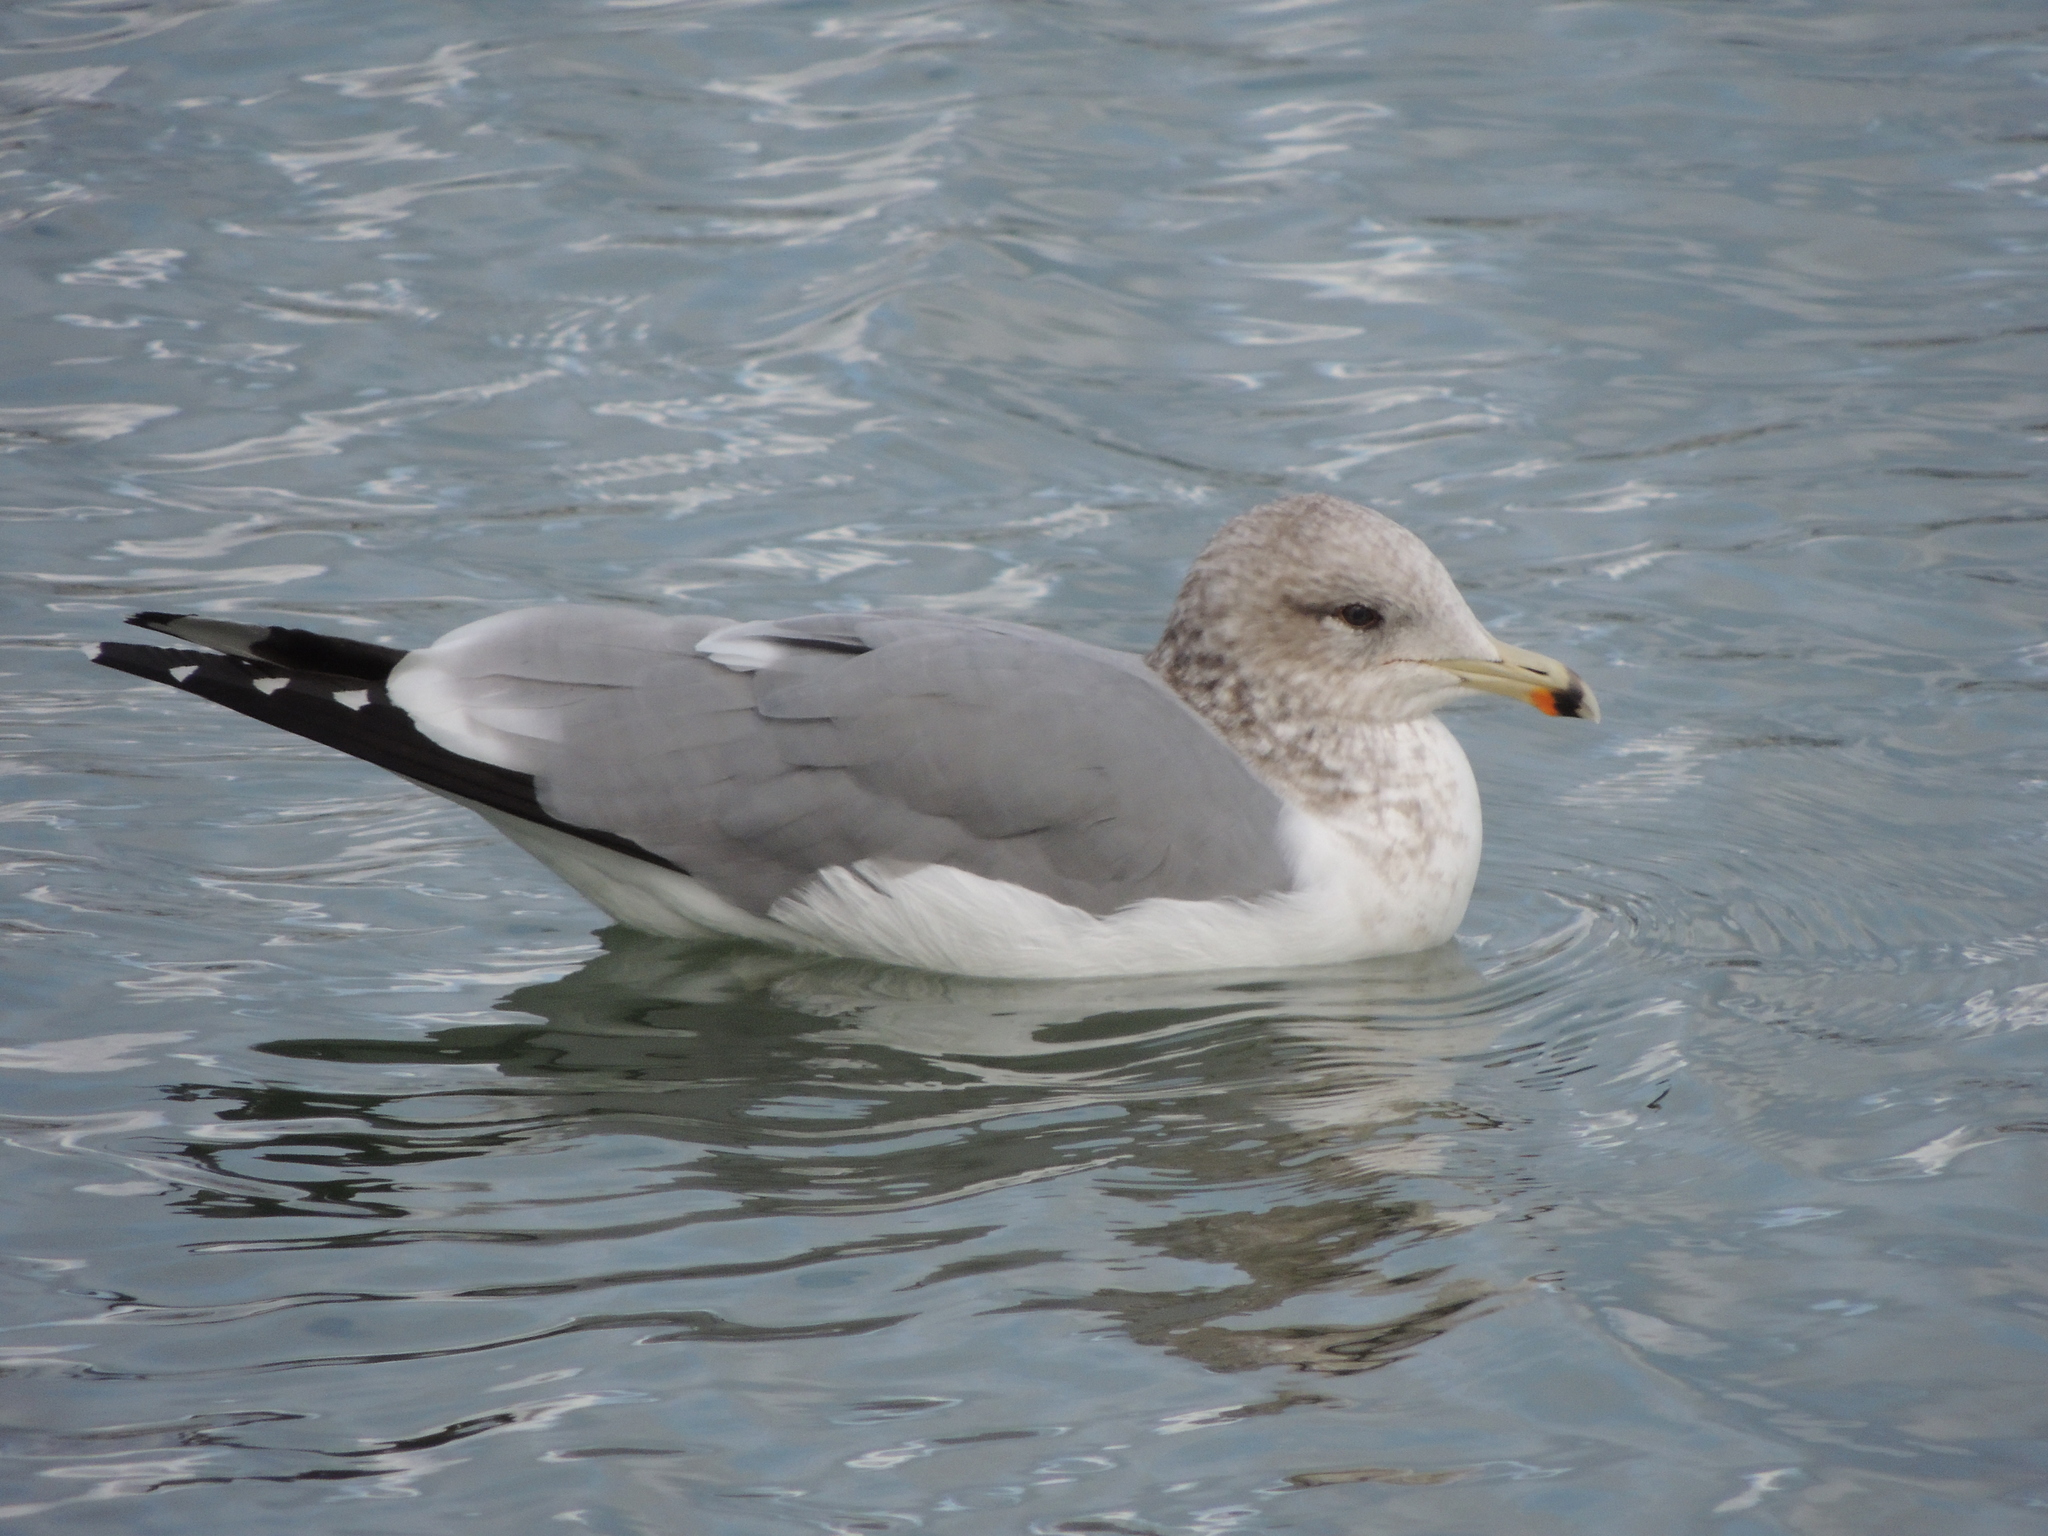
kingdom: Animalia
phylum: Chordata
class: Aves
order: Charadriiformes
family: Laridae
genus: Larus
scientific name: Larus californicus
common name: California gull
